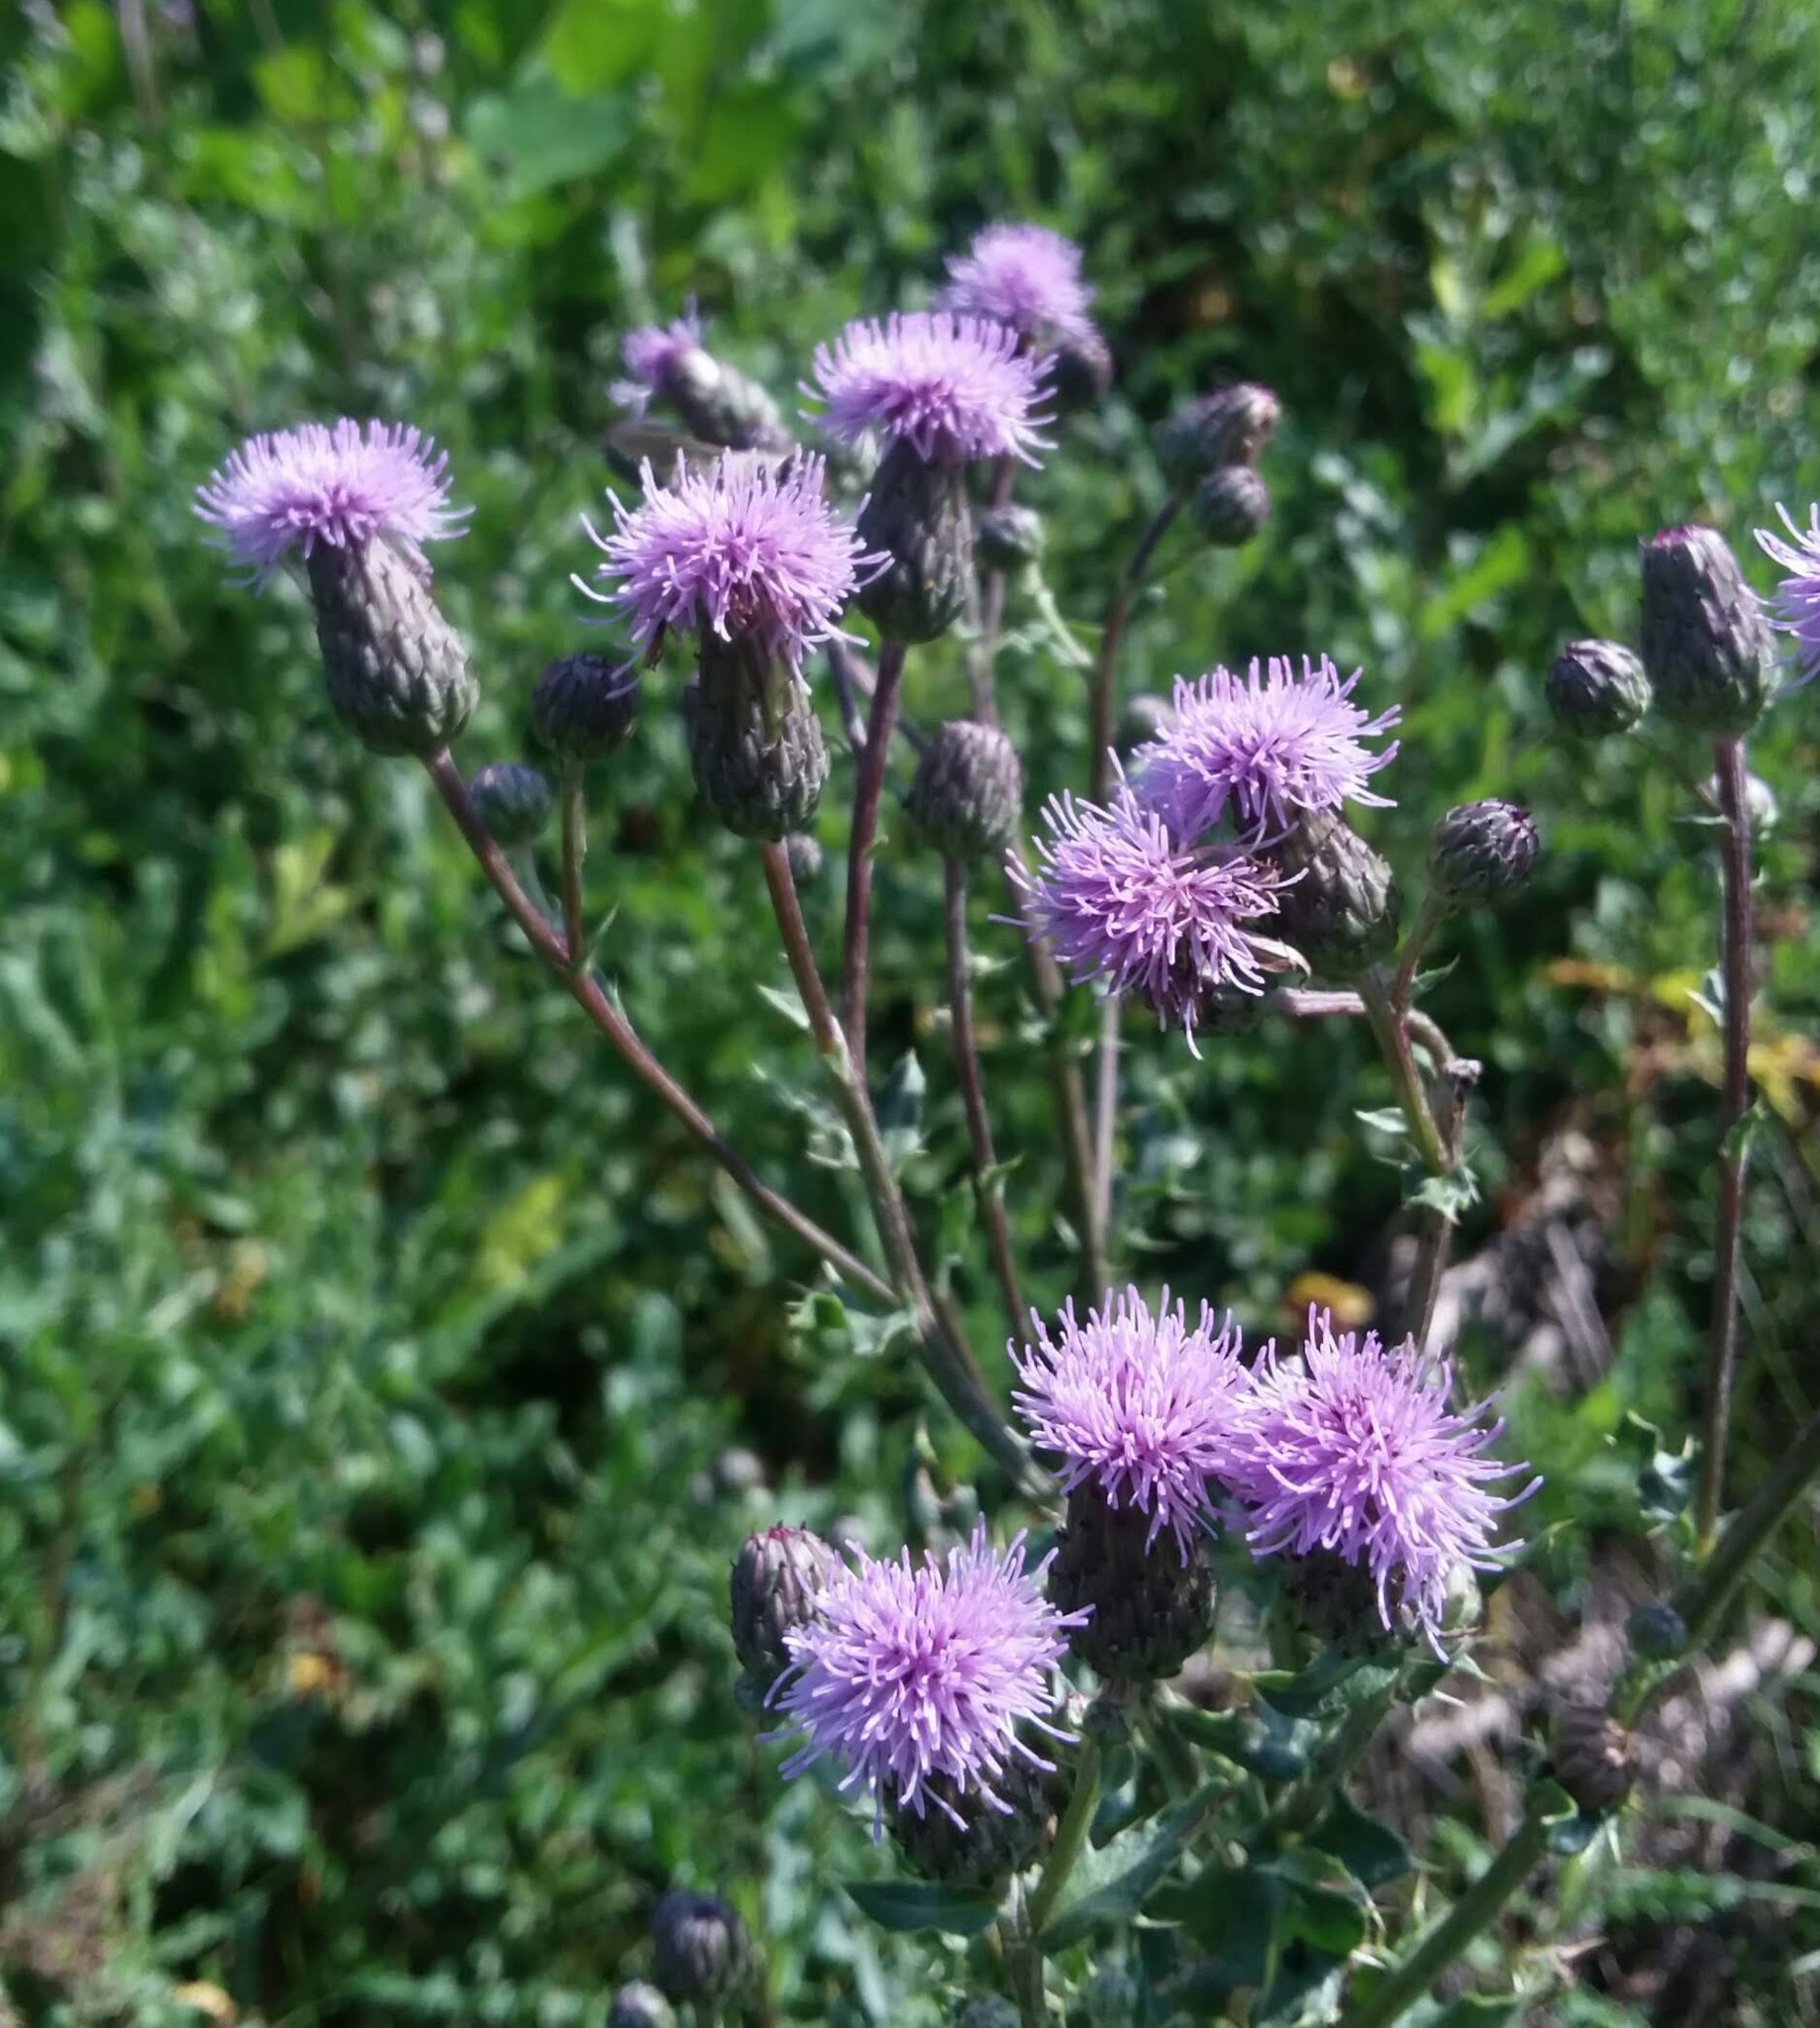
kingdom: Plantae
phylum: Tracheophyta
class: Magnoliopsida
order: Asterales
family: Asteraceae
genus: Cirsium
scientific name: Cirsium arvense
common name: Creeping thistle
